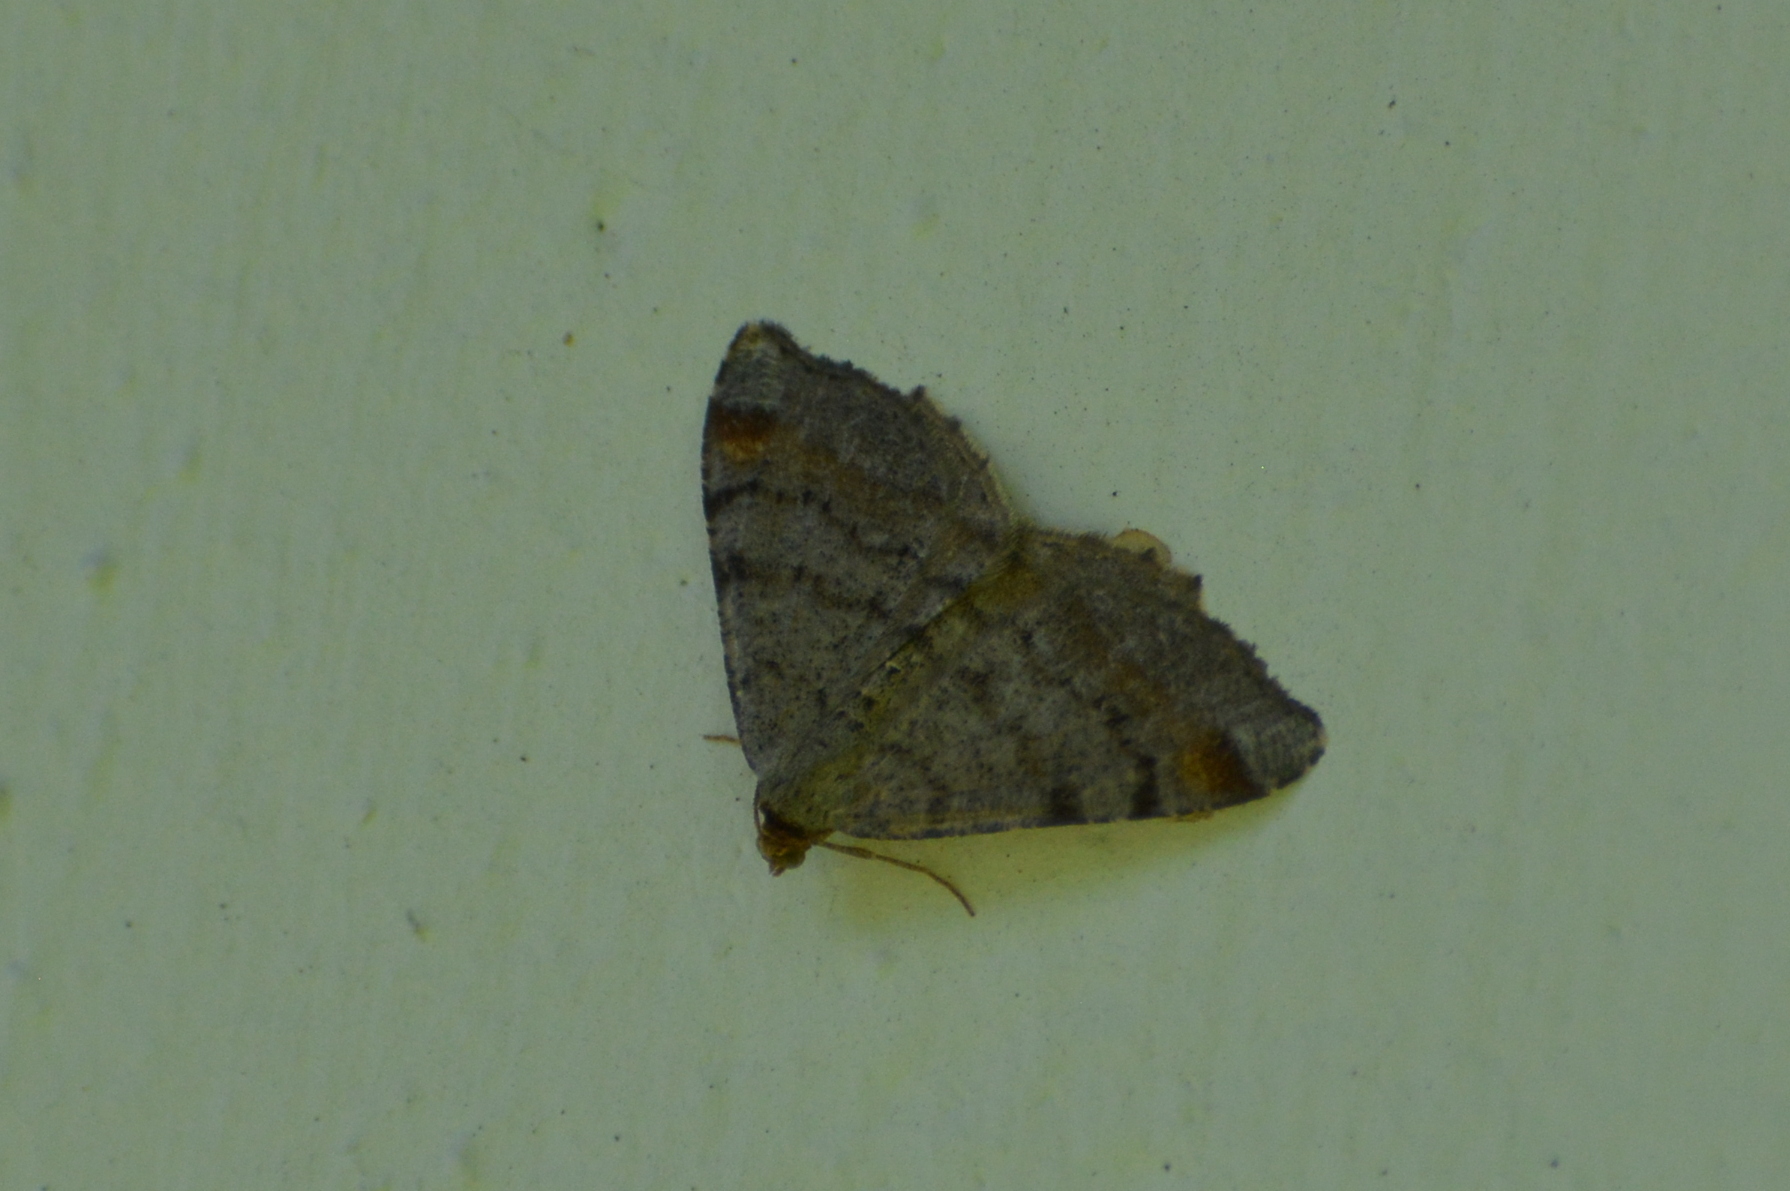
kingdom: Animalia
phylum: Arthropoda
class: Insecta
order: Lepidoptera
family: Geometridae
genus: Macaria
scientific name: Macaria liturata
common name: Tawny-barred angle
